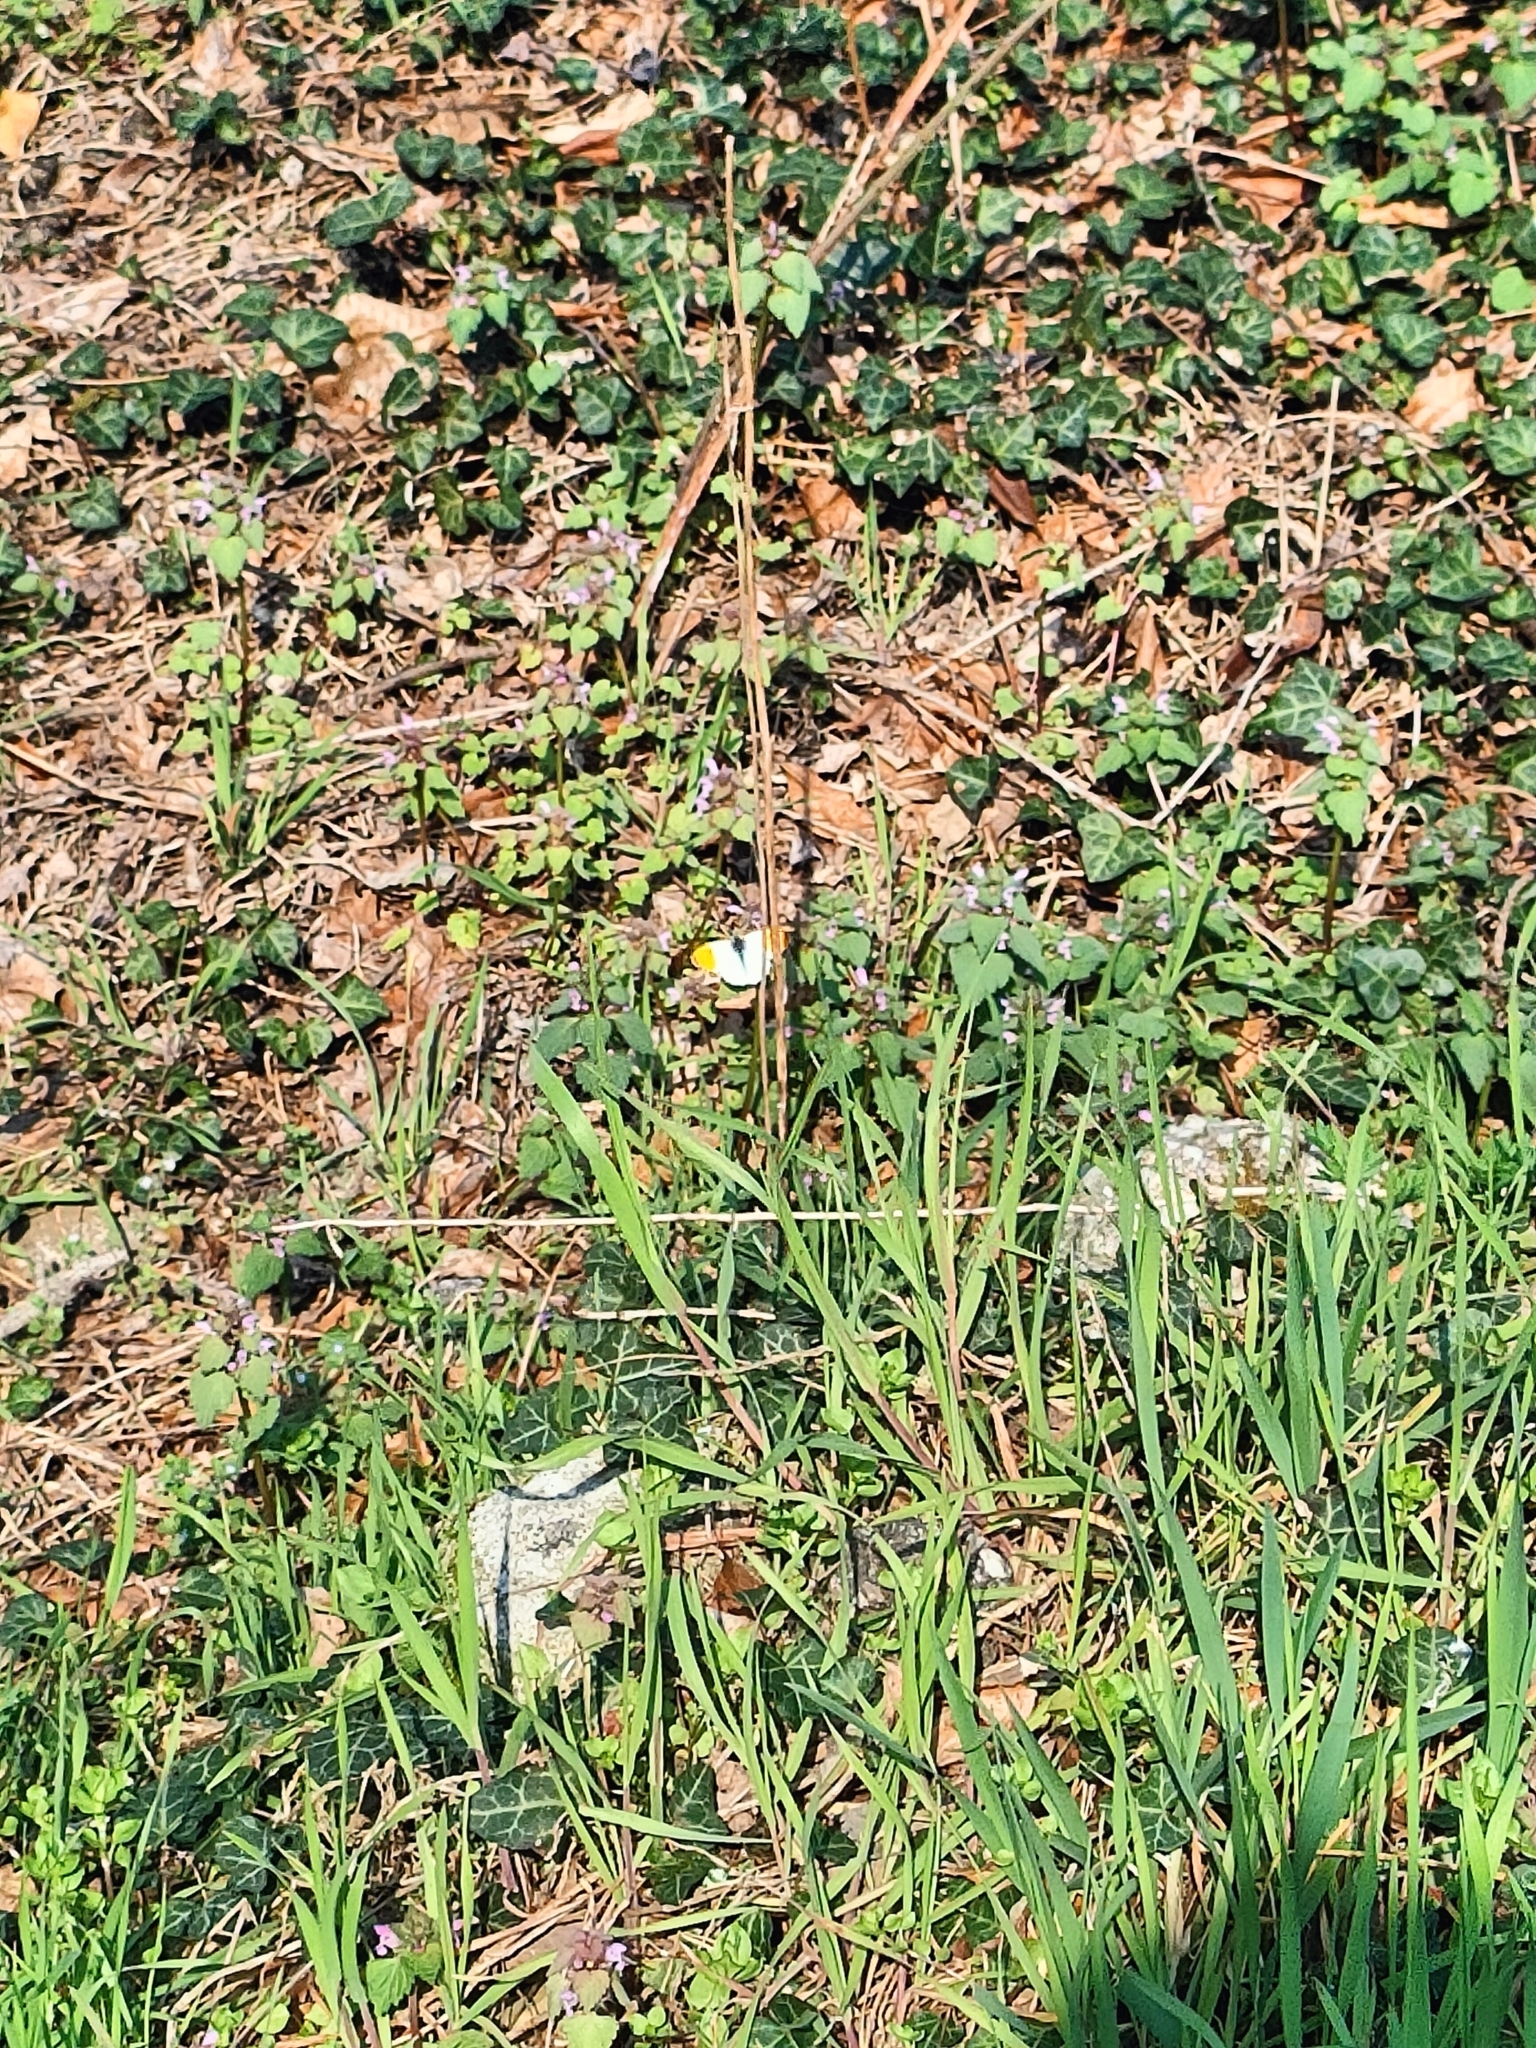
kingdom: Animalia
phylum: Arthropoda
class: Insecta
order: Lepidoptera
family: Pieridae
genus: Anthocharis
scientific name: Anthocharis cardamines
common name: Orange-tip
